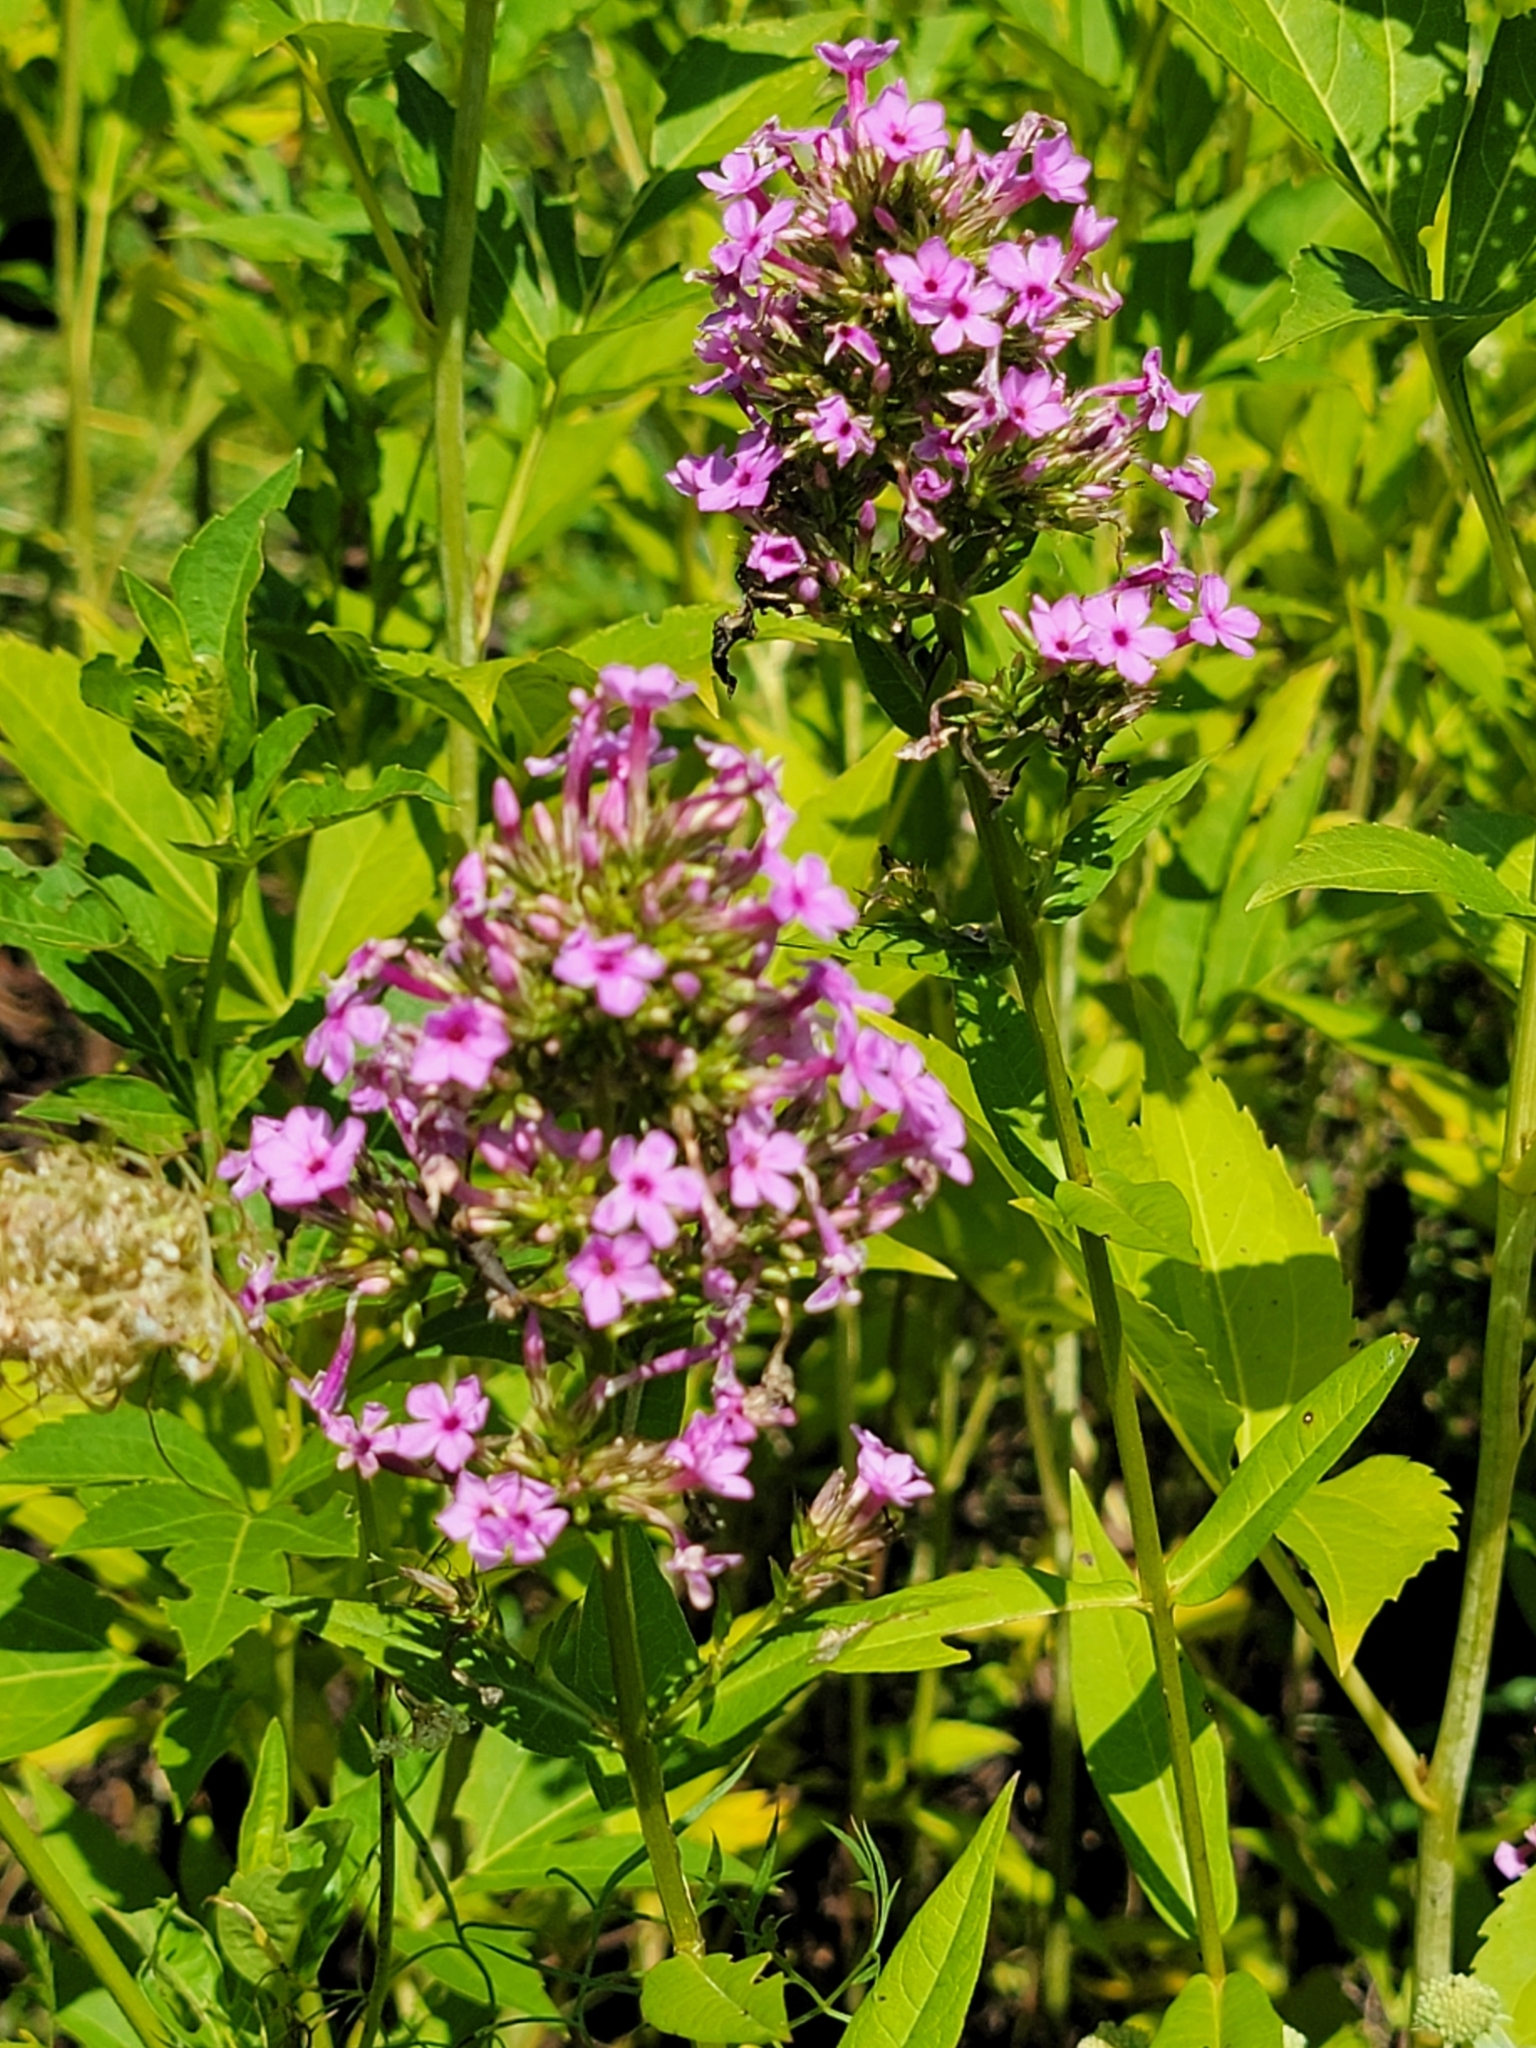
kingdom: Plantae
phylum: Tracheophyta
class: Magnoliopsida
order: Ericales
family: Polemoniaceae
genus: Phlox
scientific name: Phlox paniculata
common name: Fall phlox
